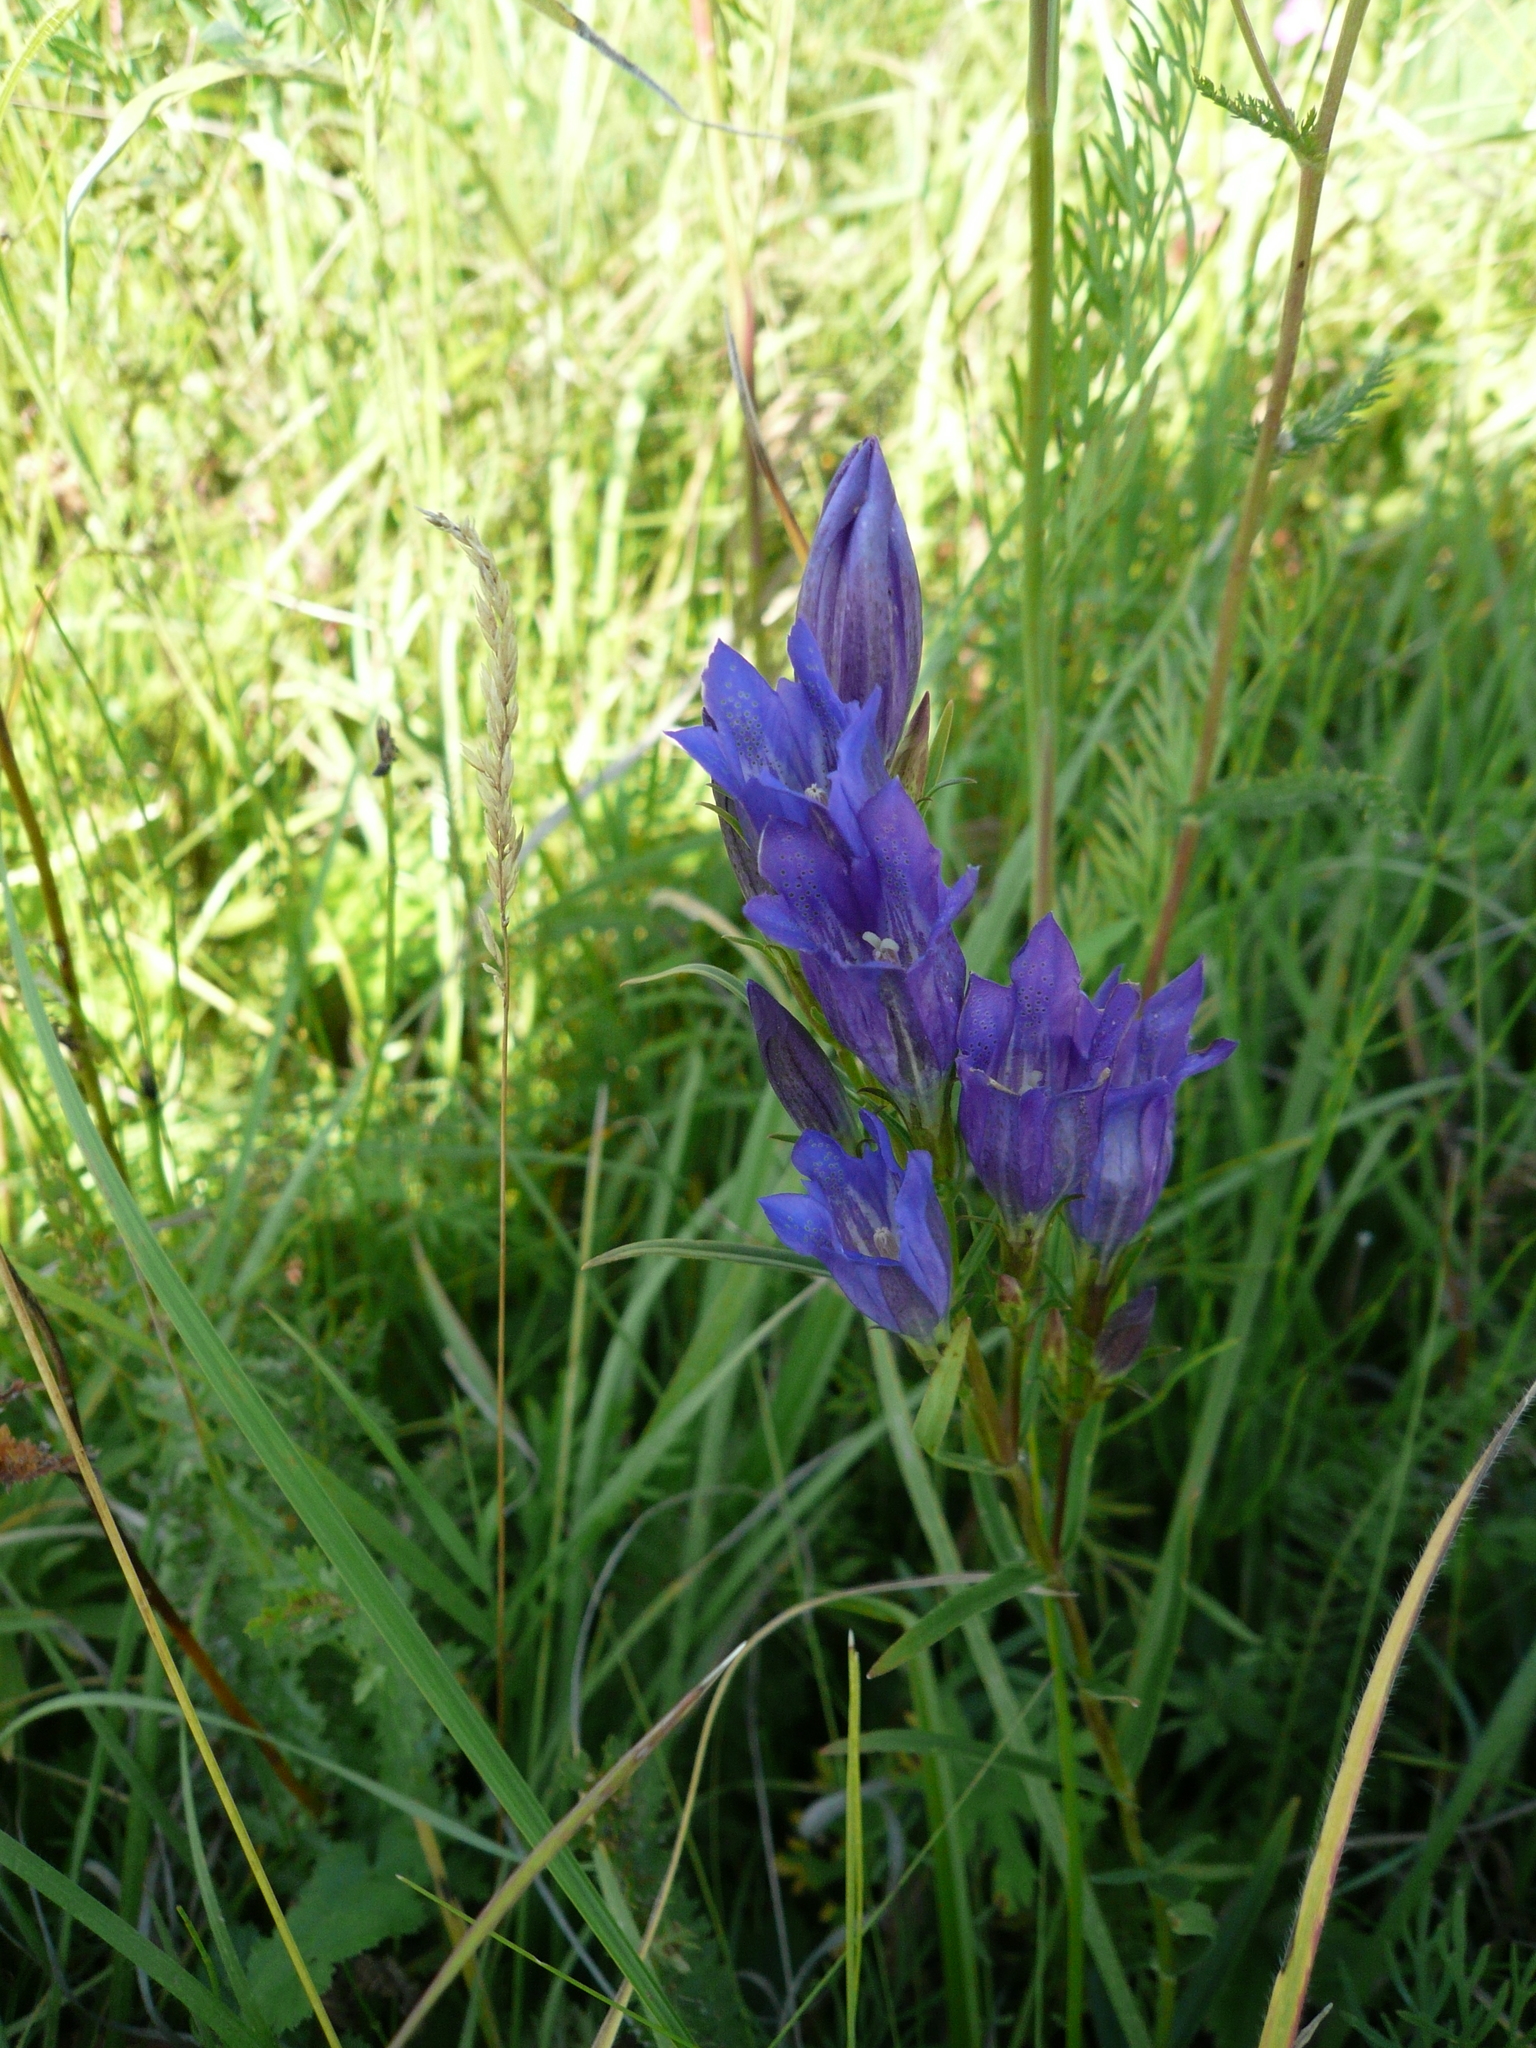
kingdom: Plantae
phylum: Tracheophyta
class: Magnoliopsida
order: Gentianales
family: Gentianaceae
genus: Gentiana
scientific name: Gentiana pneumonanthe
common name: Marsh gentian
